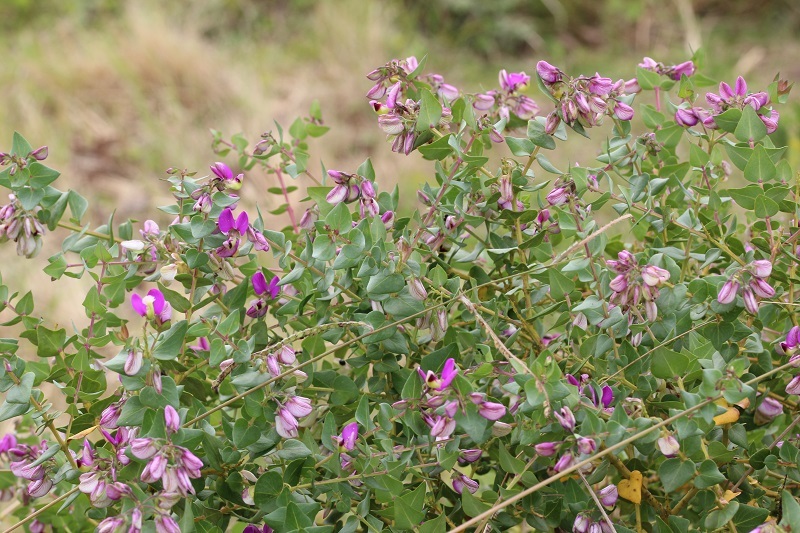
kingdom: Plantae
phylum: Tracheophyta
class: Magnoliopsida
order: Fabales
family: Polygalaceae
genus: Polygala
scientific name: Polygala fruticosa
